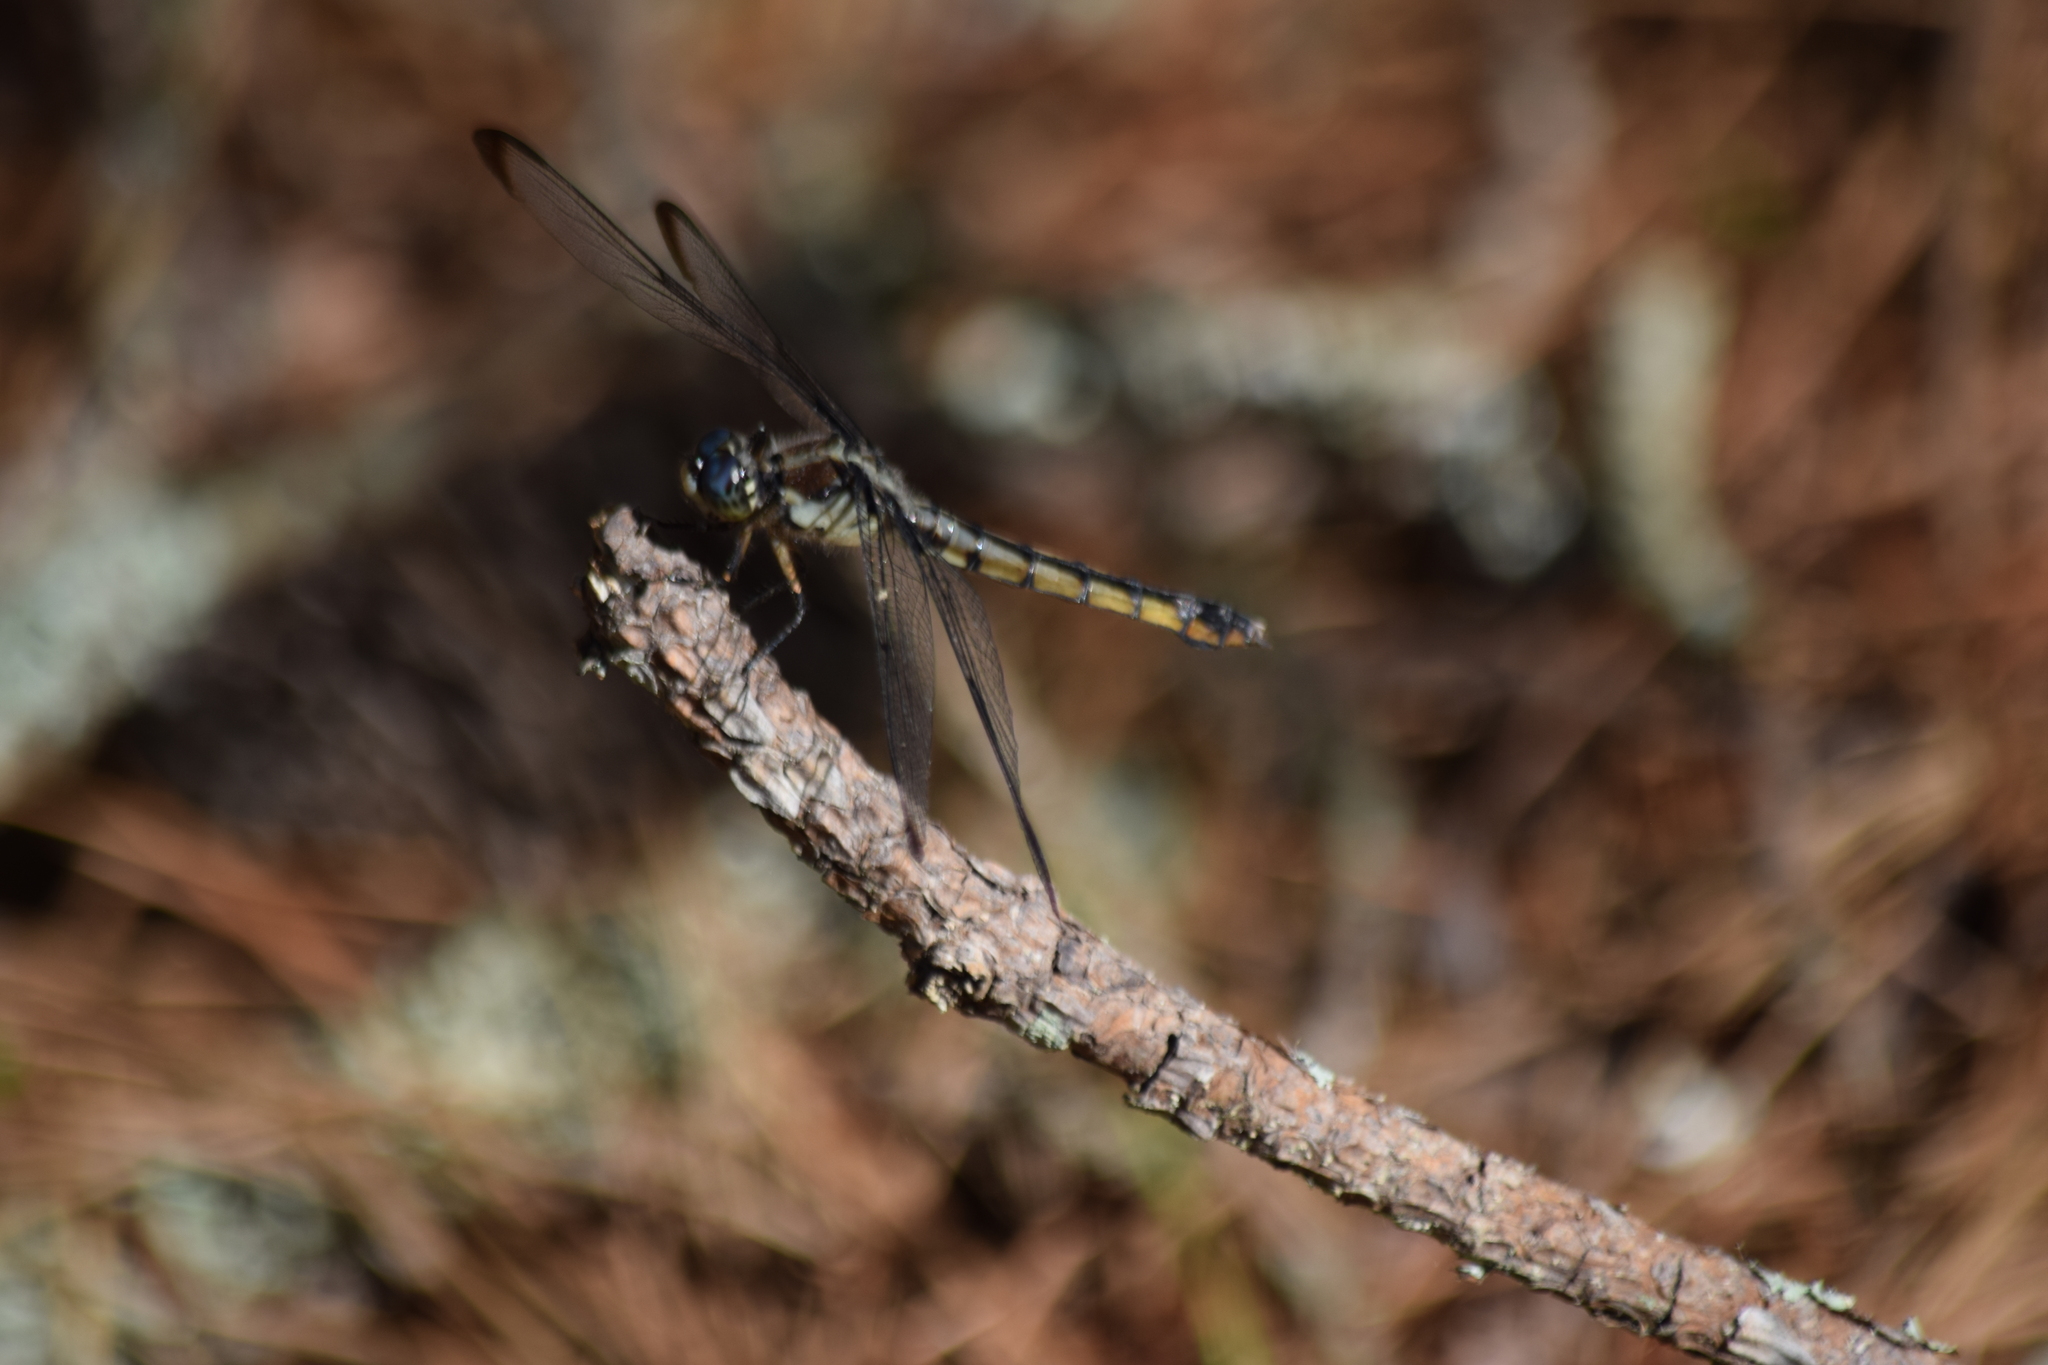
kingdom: Animalia
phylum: Arthropoda
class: Insecta
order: Odonata
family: Libellulidae
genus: Libellula
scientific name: Libellula vibrans
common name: Great blue skimmer
